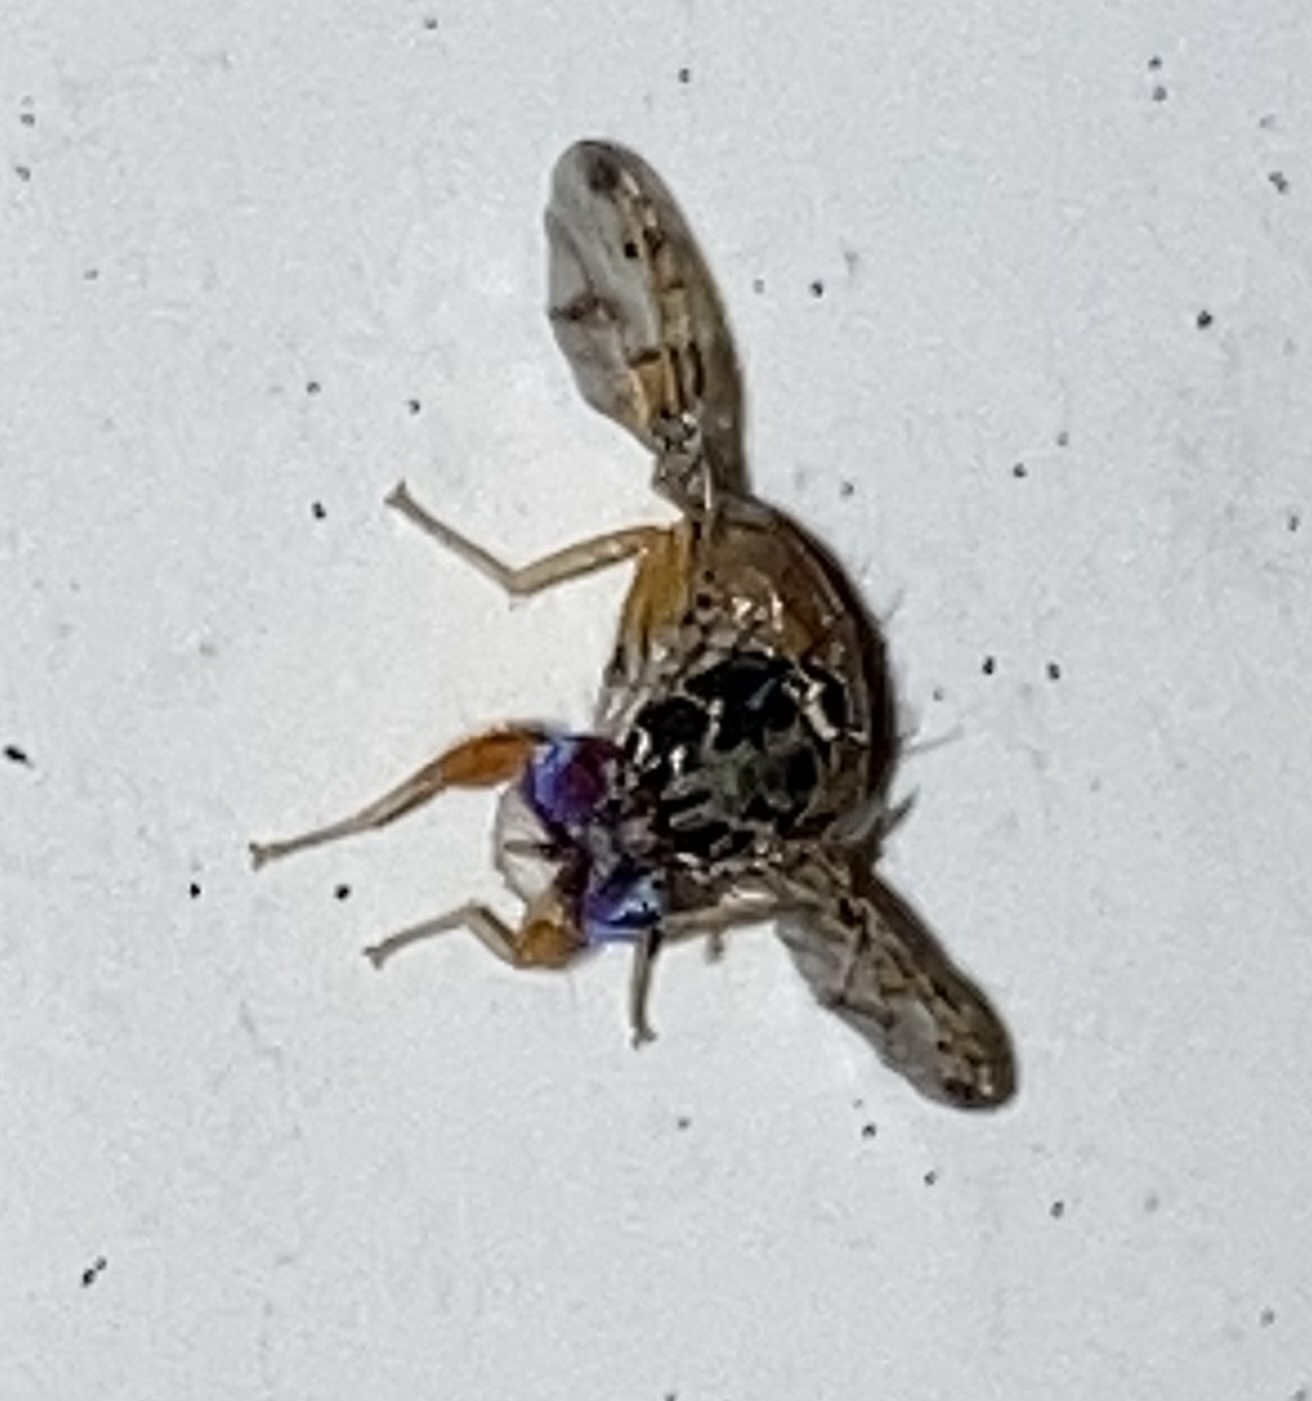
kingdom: Animalia
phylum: Arthropoda
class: Insecta
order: Diptera
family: Tephritidae
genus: Ceratitis
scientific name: Ceratitis capitata
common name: Mediterranean fruit fly
